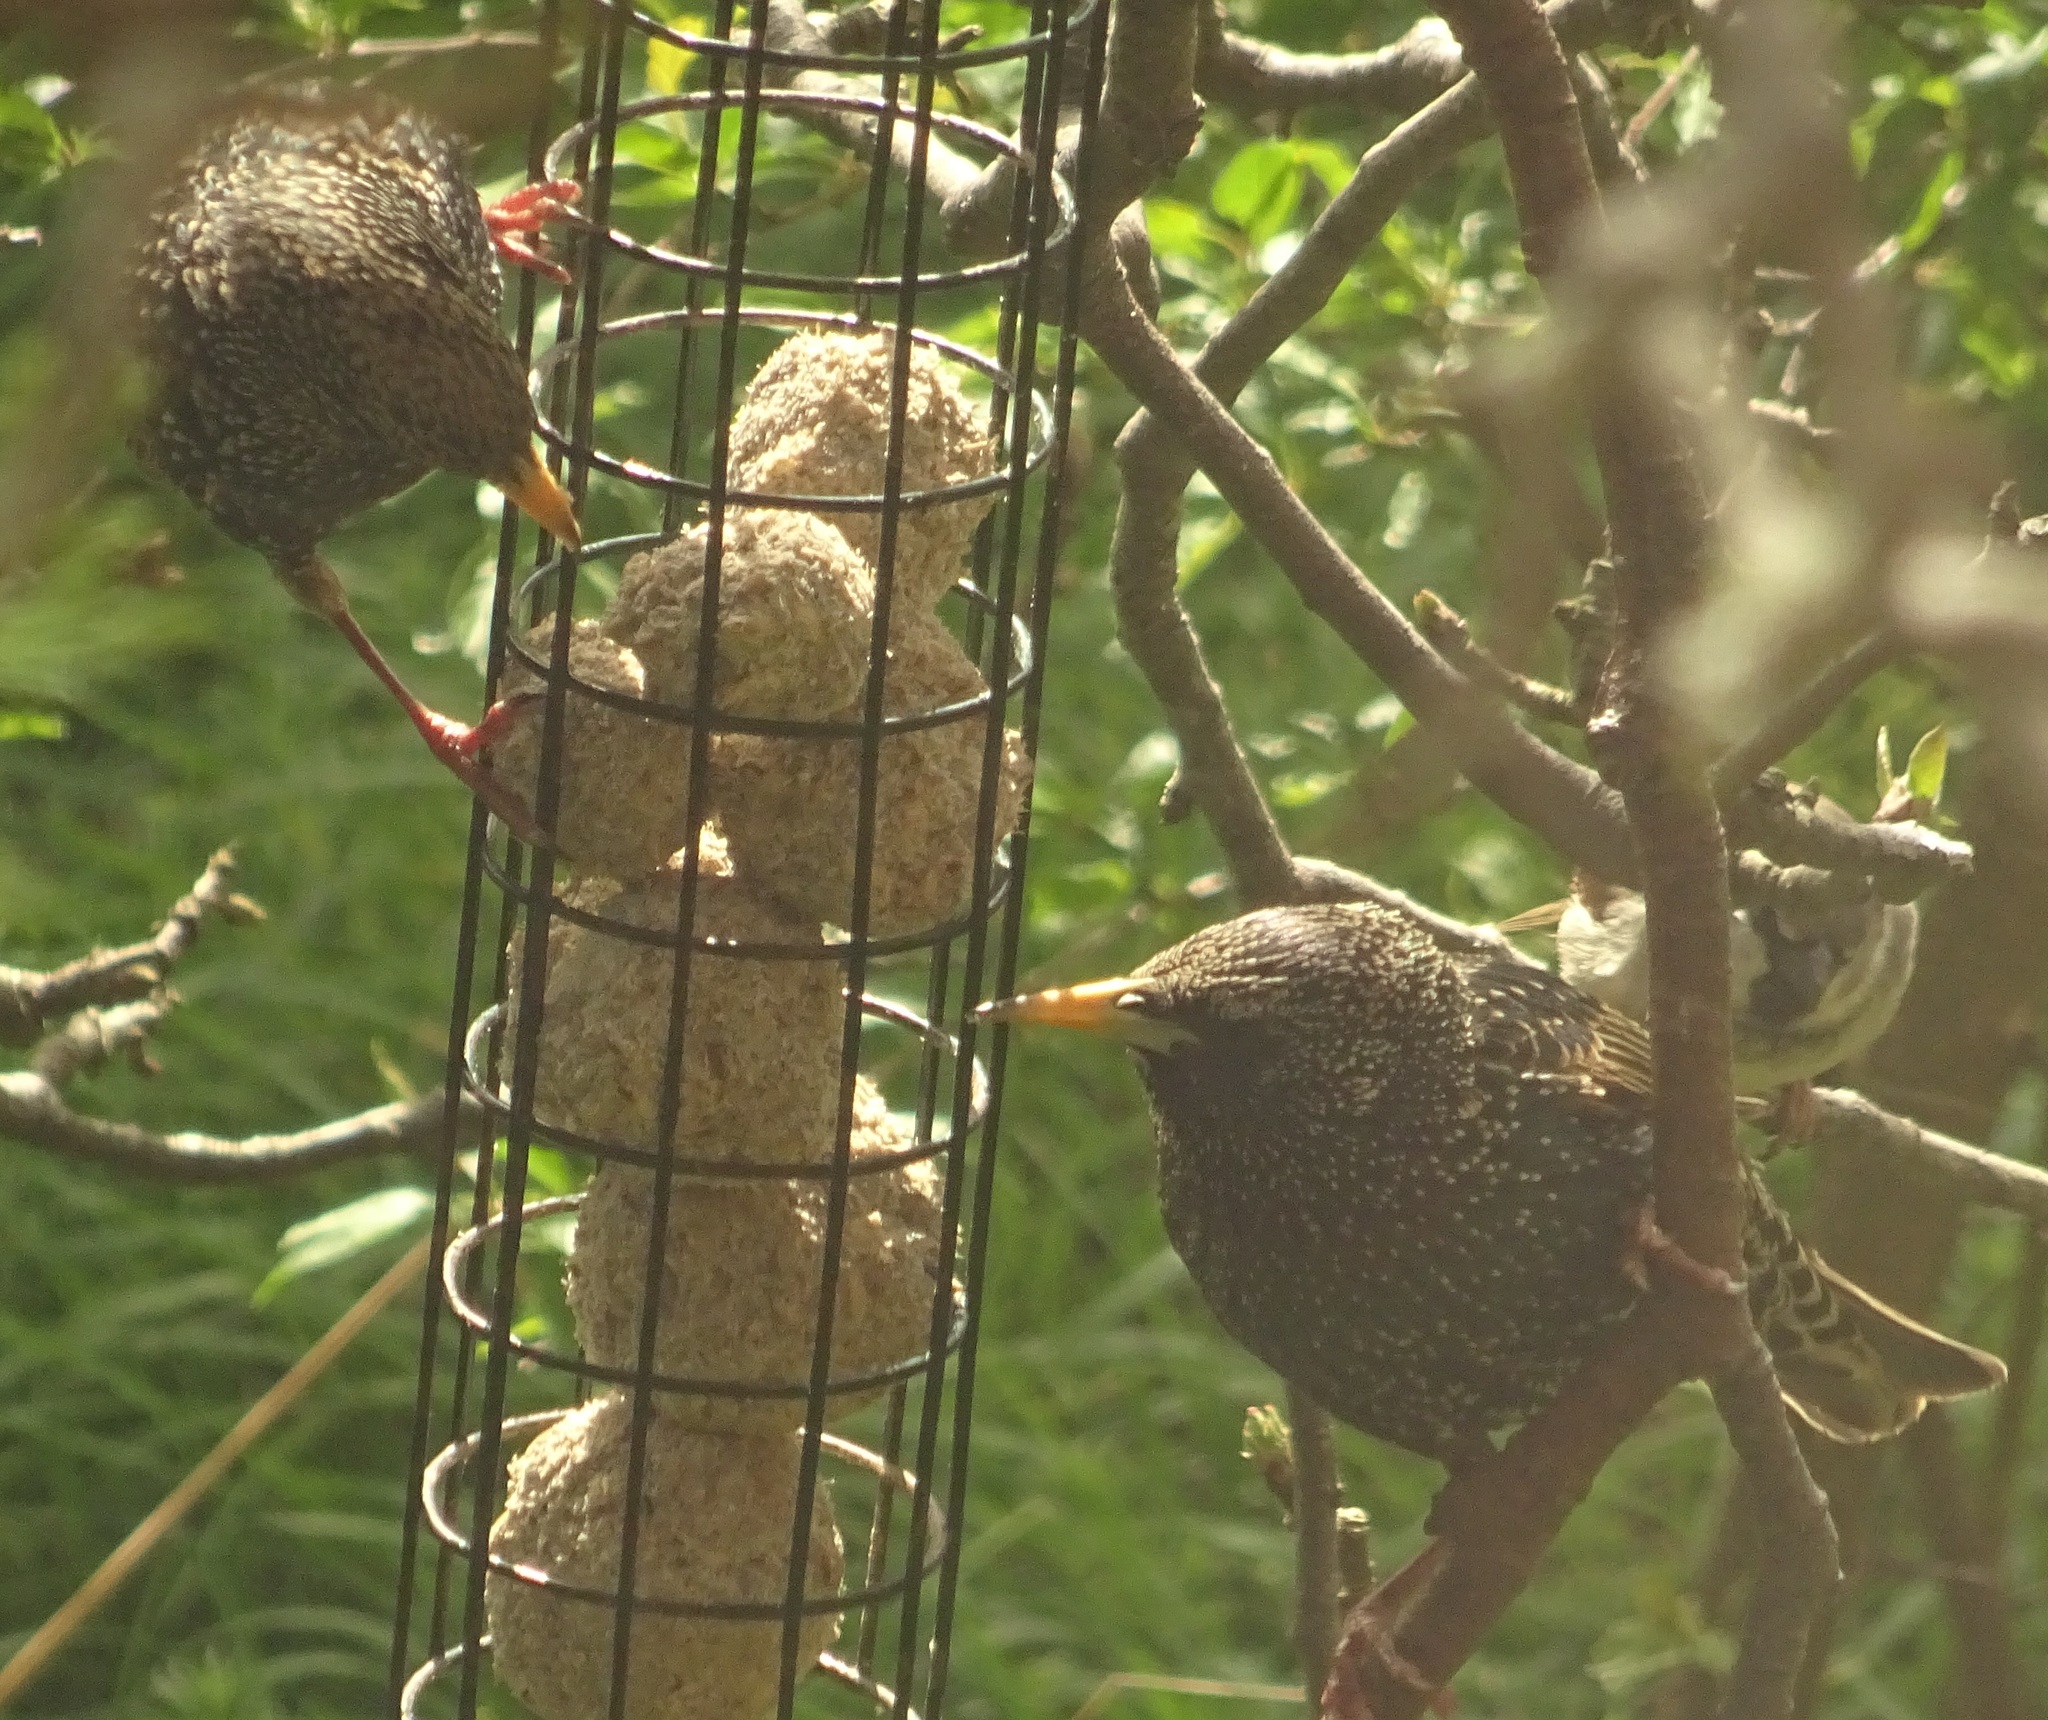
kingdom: Animalia
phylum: Chordata
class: Aves
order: Passeriformes
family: Sturnidae
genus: Sturnus
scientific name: Sturnus vulgaris
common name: Common starling
